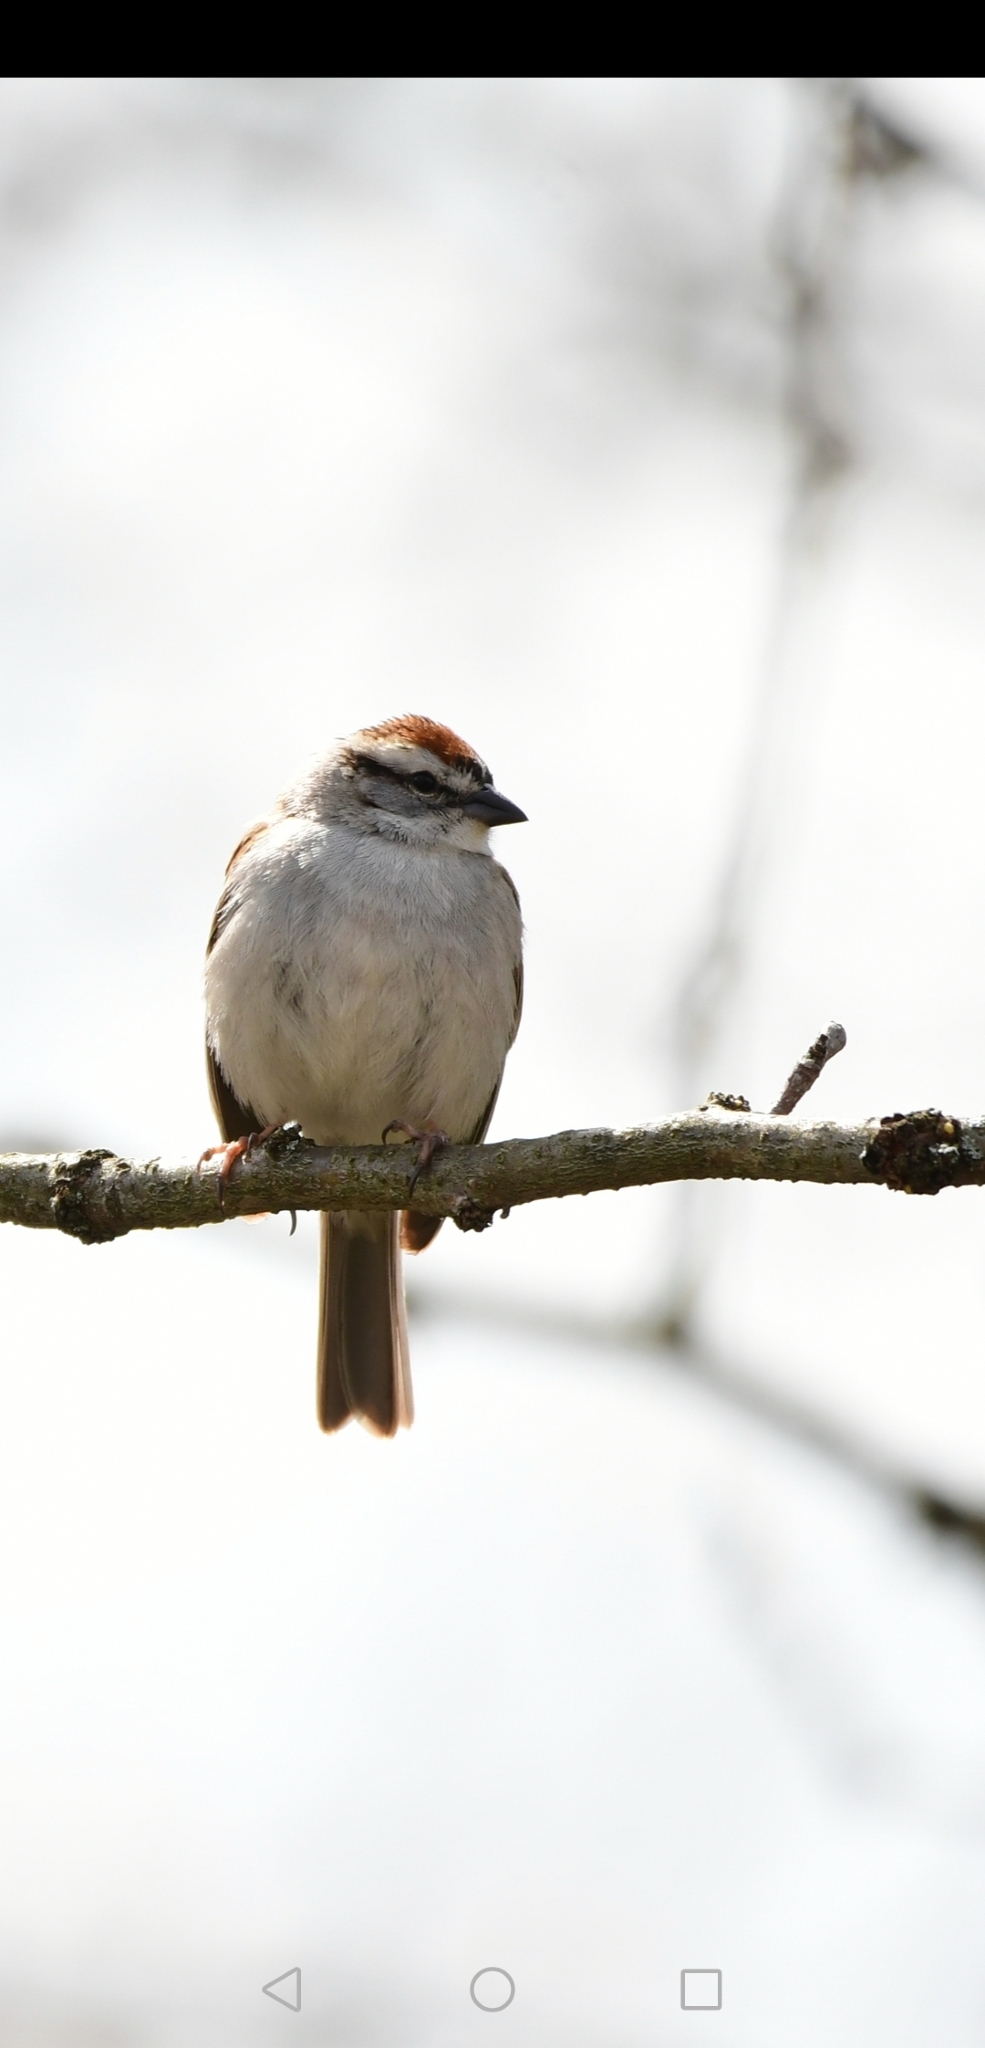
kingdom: Animalia
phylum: Chordata
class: Aves
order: Passeriformes
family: Passerellidae
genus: Spizella
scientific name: Spizella passerina
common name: Chipping sparrow
